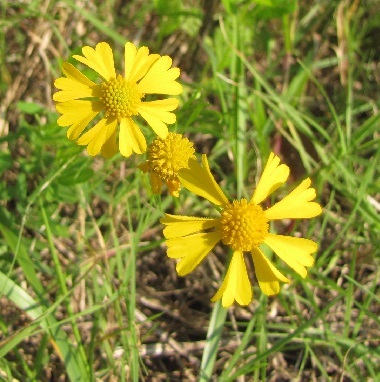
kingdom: Plantae
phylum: Tracheophyta
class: Magnoliopsida
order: Asterales
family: Asteraceae
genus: Helenium
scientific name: Helenium amarum
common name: Bitter sneezeweed
